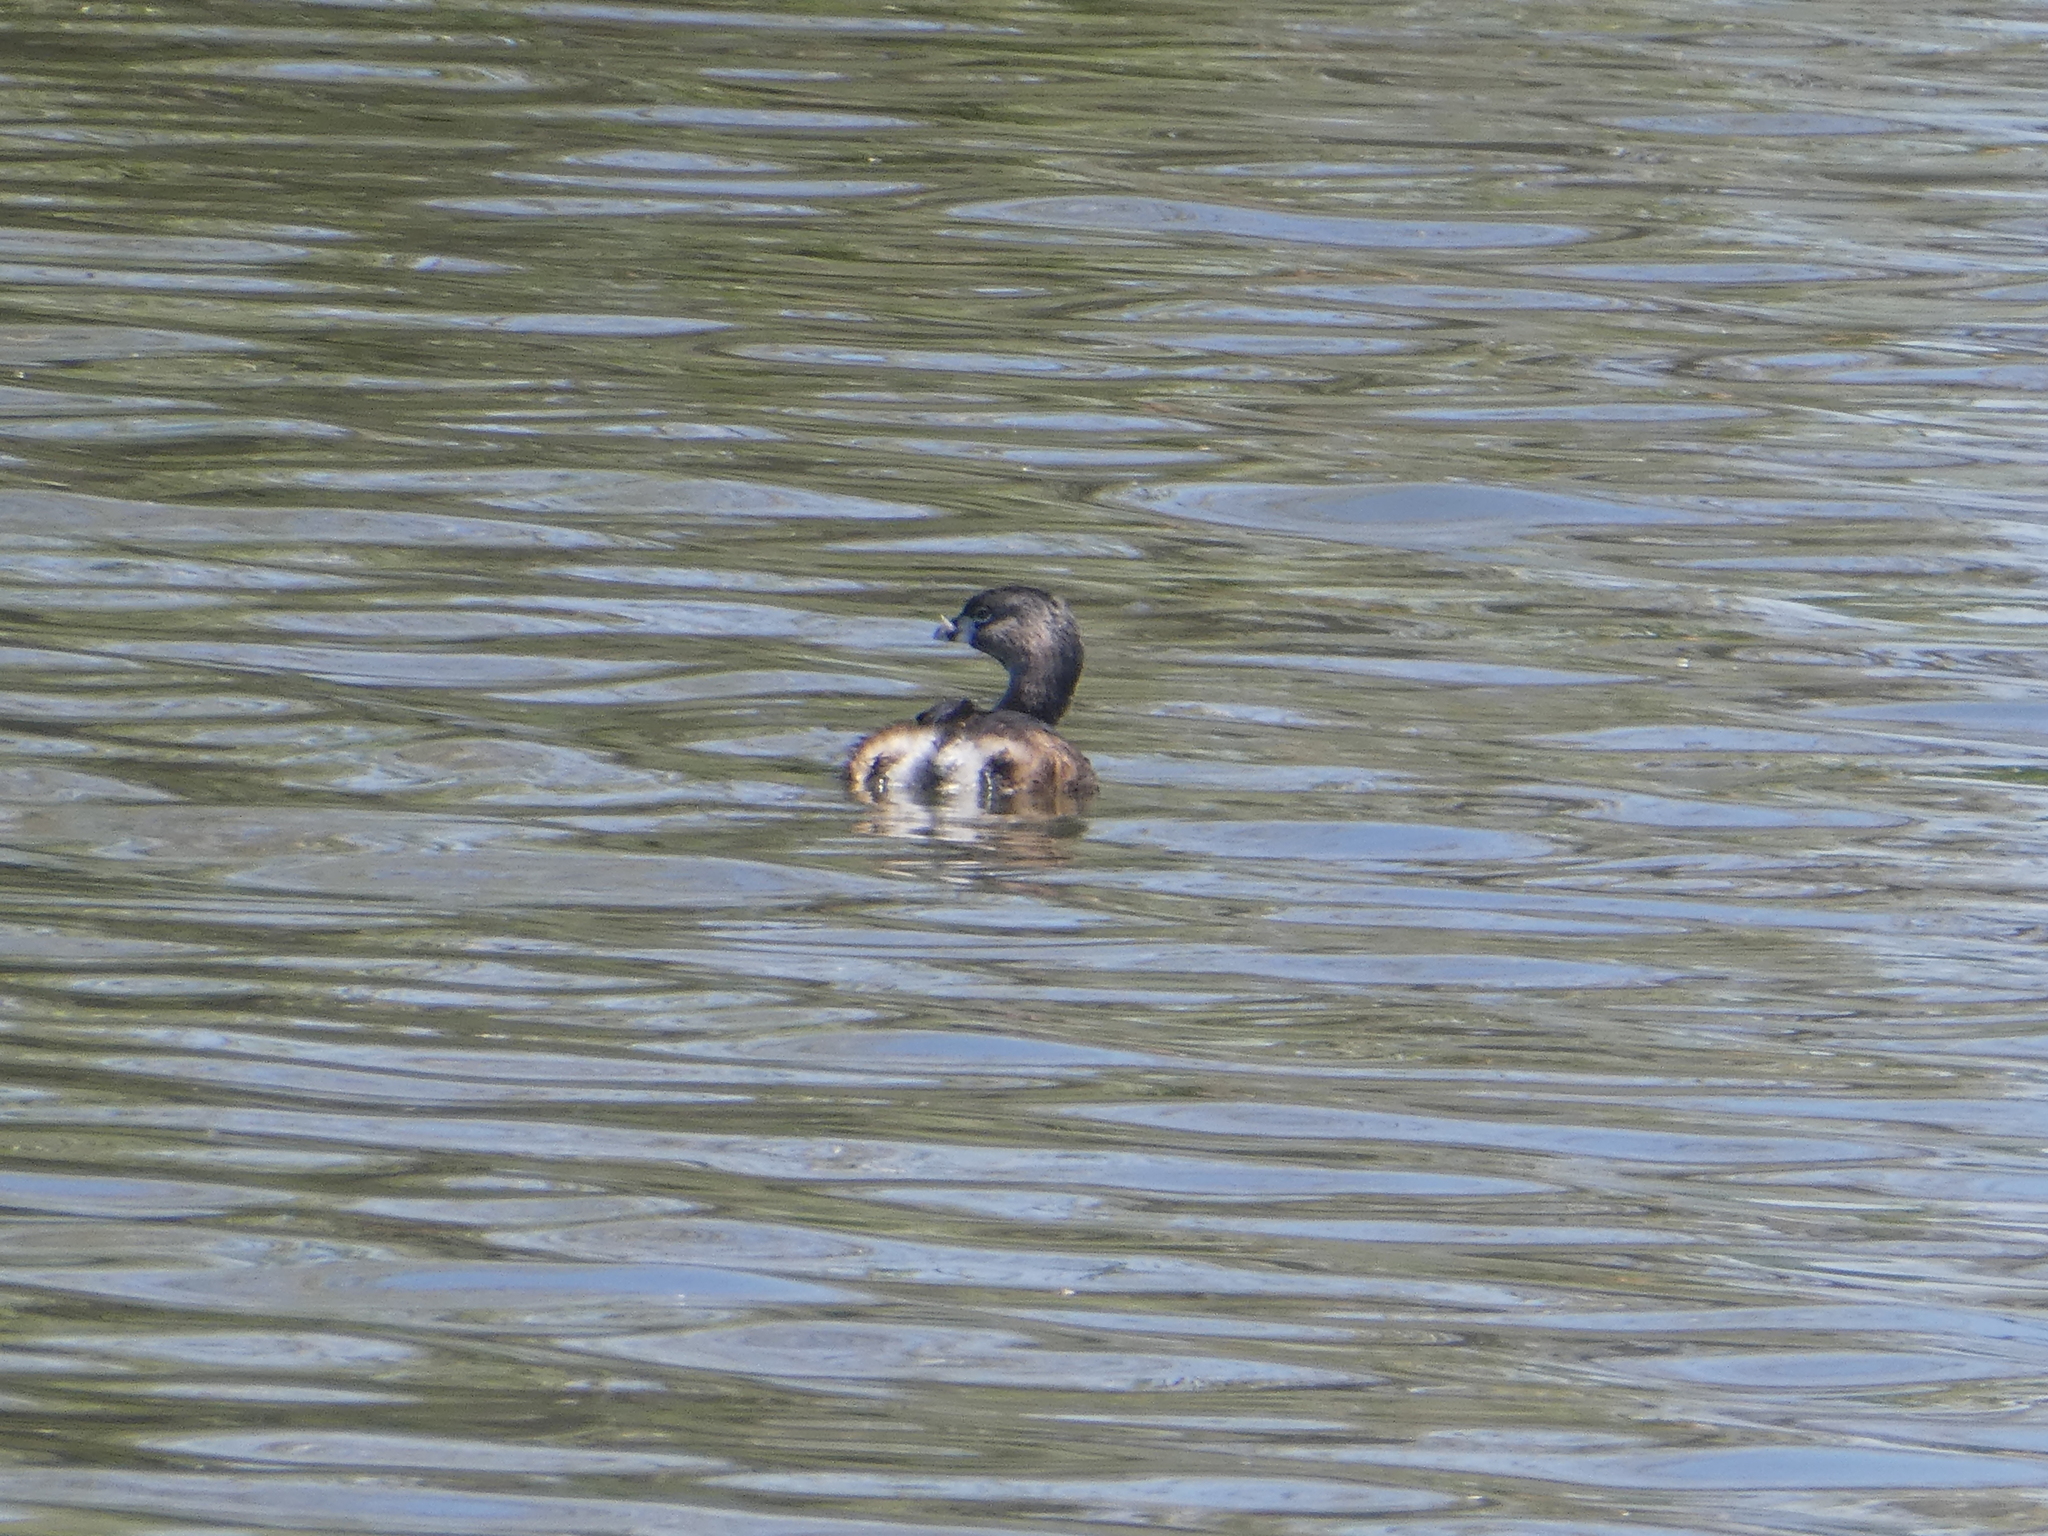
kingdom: Animalia
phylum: Chordata
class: Aves
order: Podicipediformes
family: Podicipedidae
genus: Podilymbus
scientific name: Podilymbus podiceps
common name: Pied-billed grebe
